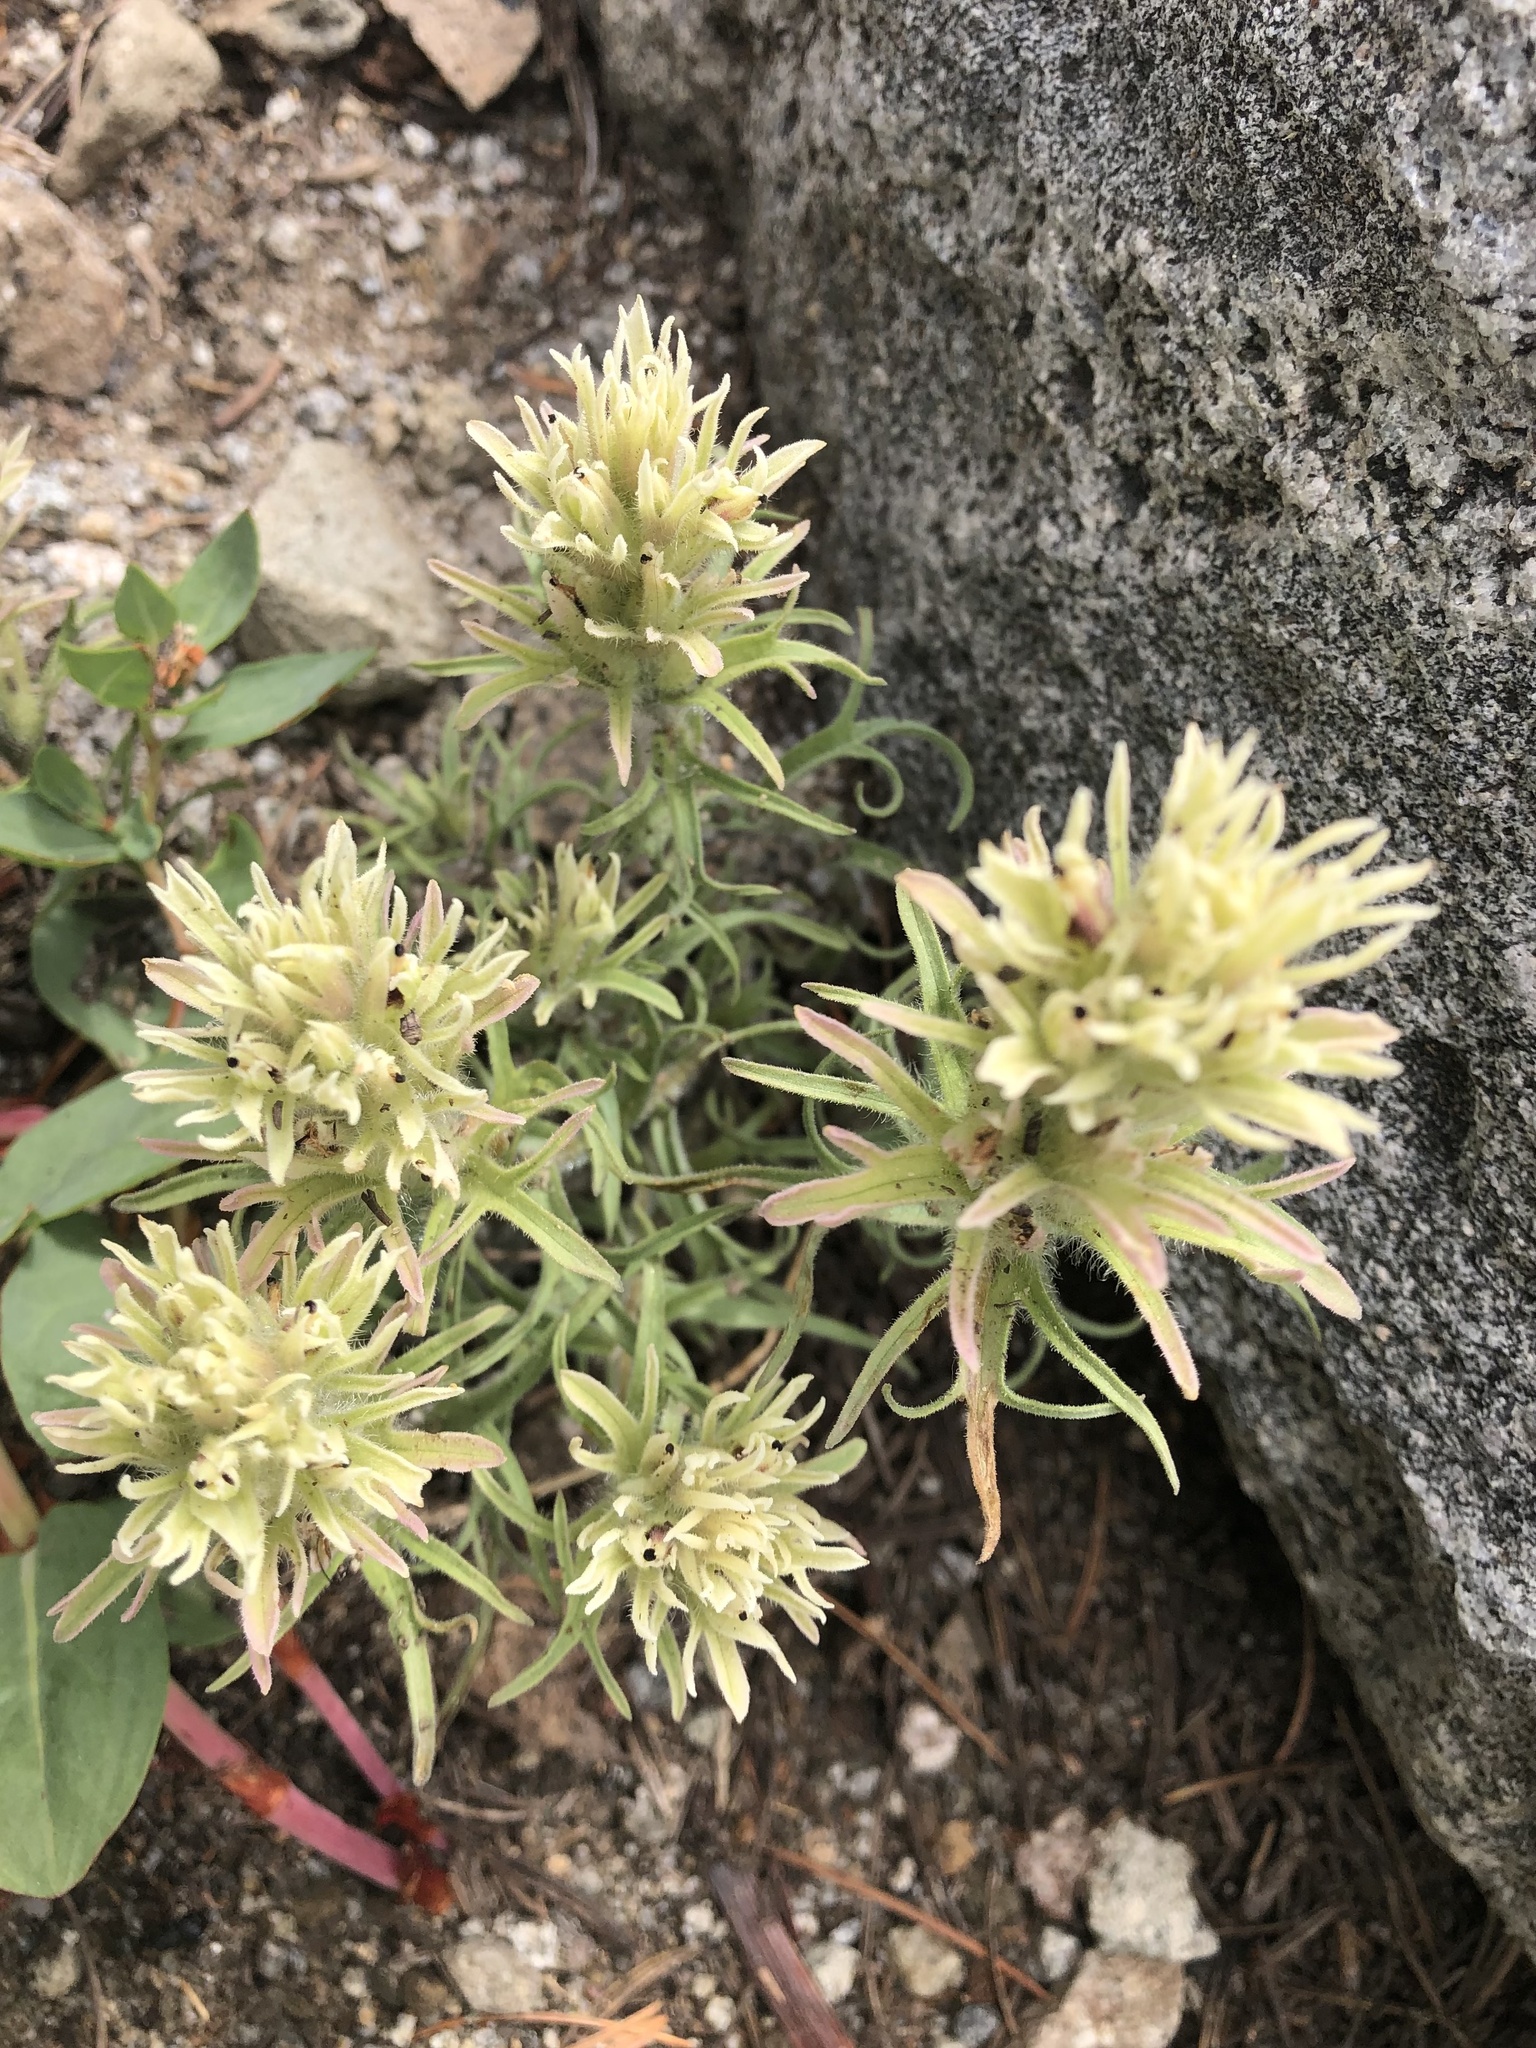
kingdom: Plantae
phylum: Tracheophyta
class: Magnoliopsida
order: Lamiales
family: Orobanchaceae
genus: Castilleja
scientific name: Castilleja nana
